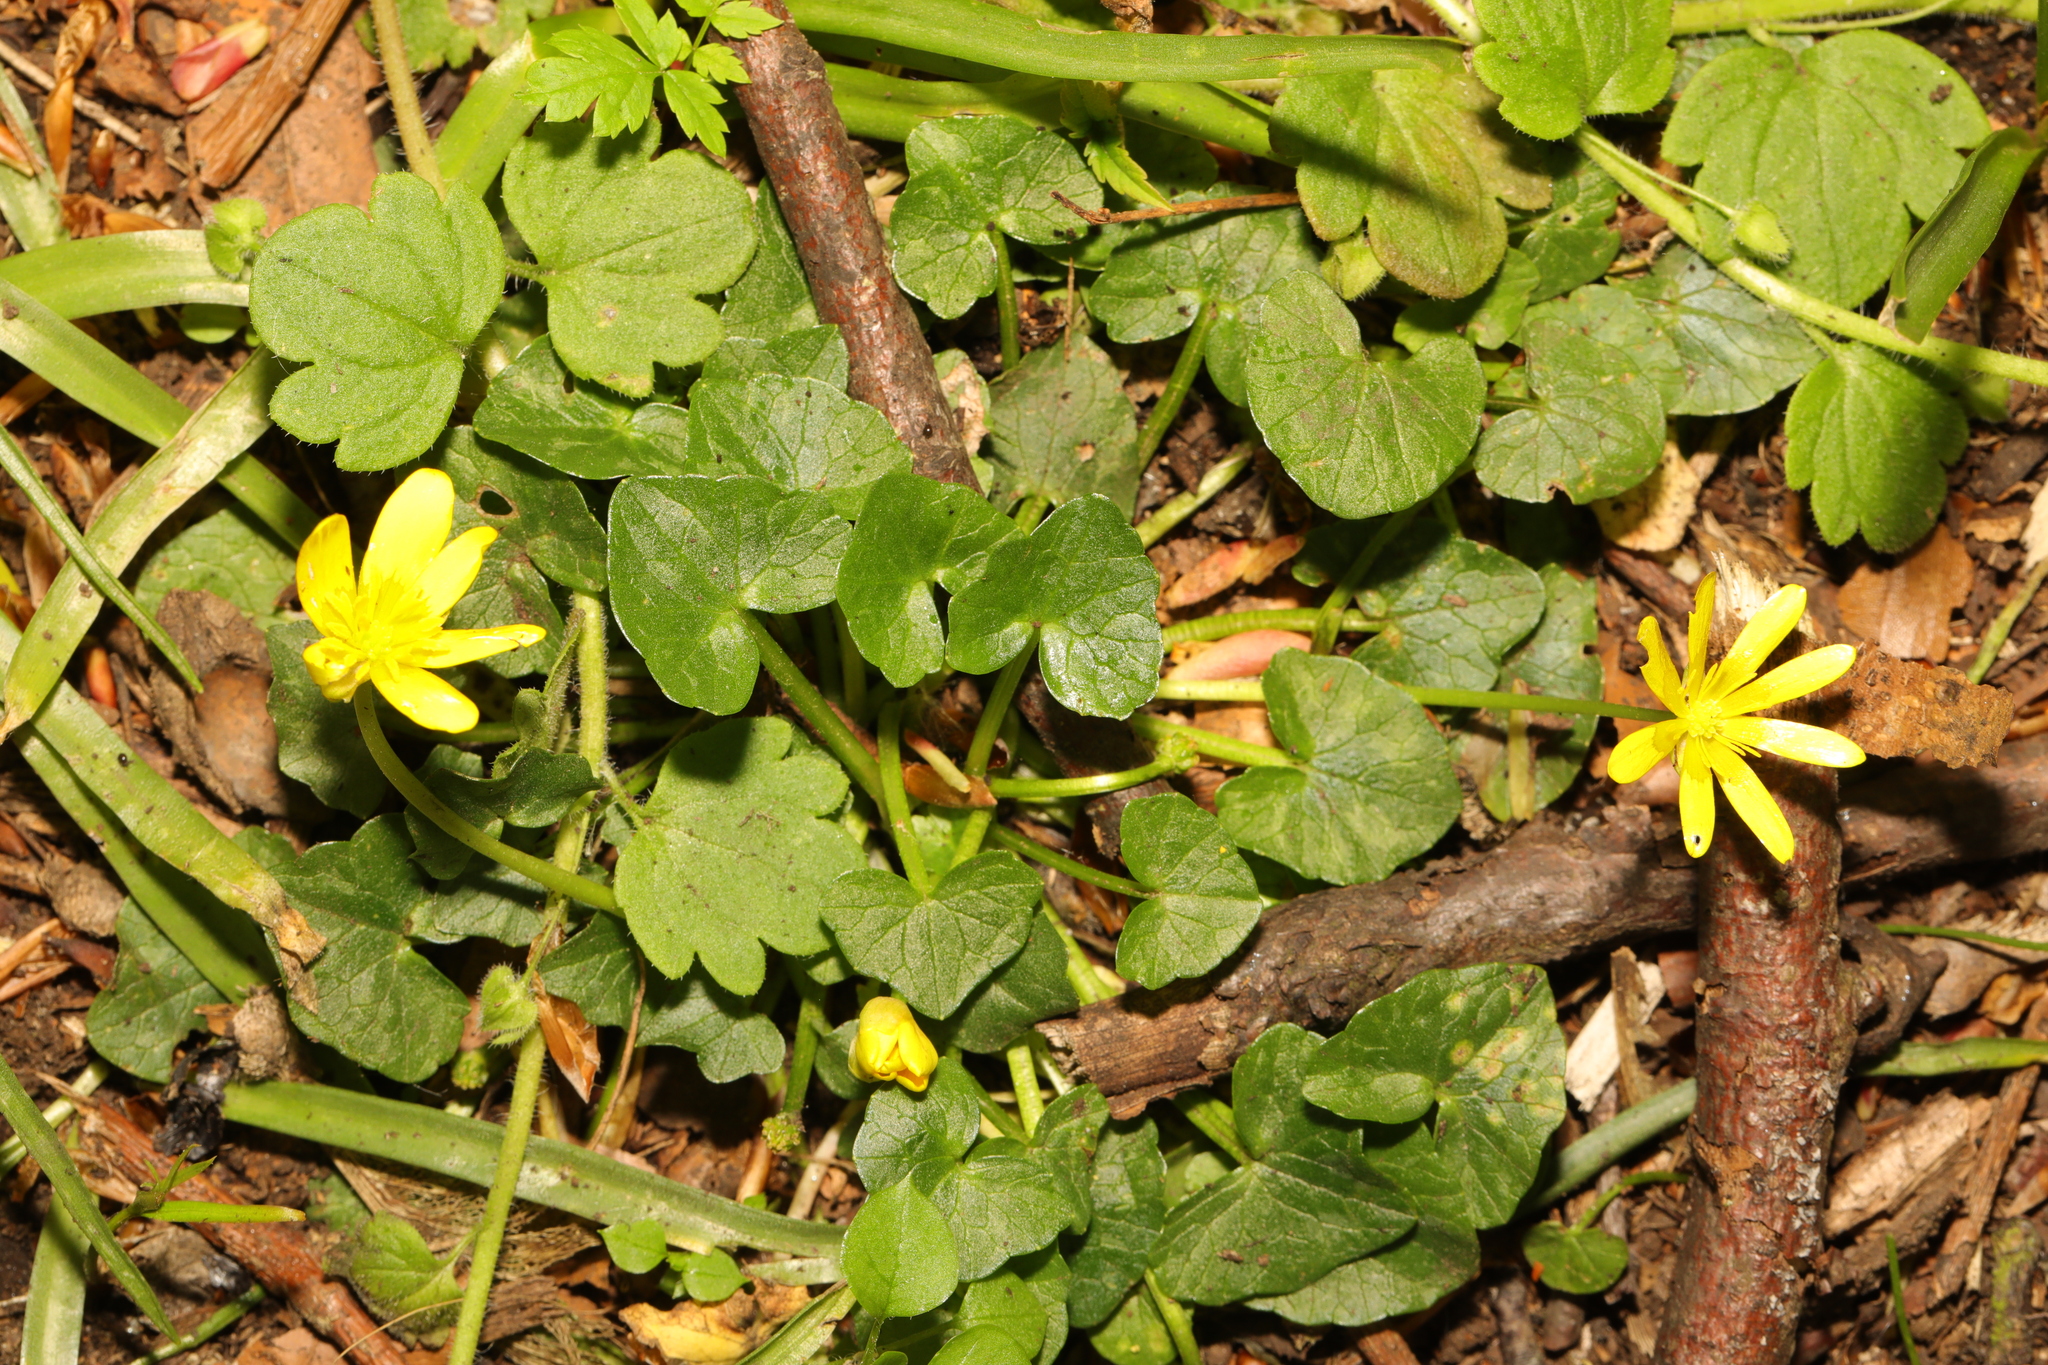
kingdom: Plantae
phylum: Tracheophyta
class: Magnoliopsida
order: Ranunculales
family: Ranunculaceae
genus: Ficaria
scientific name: Ficaria verna
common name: Lesser celandine
